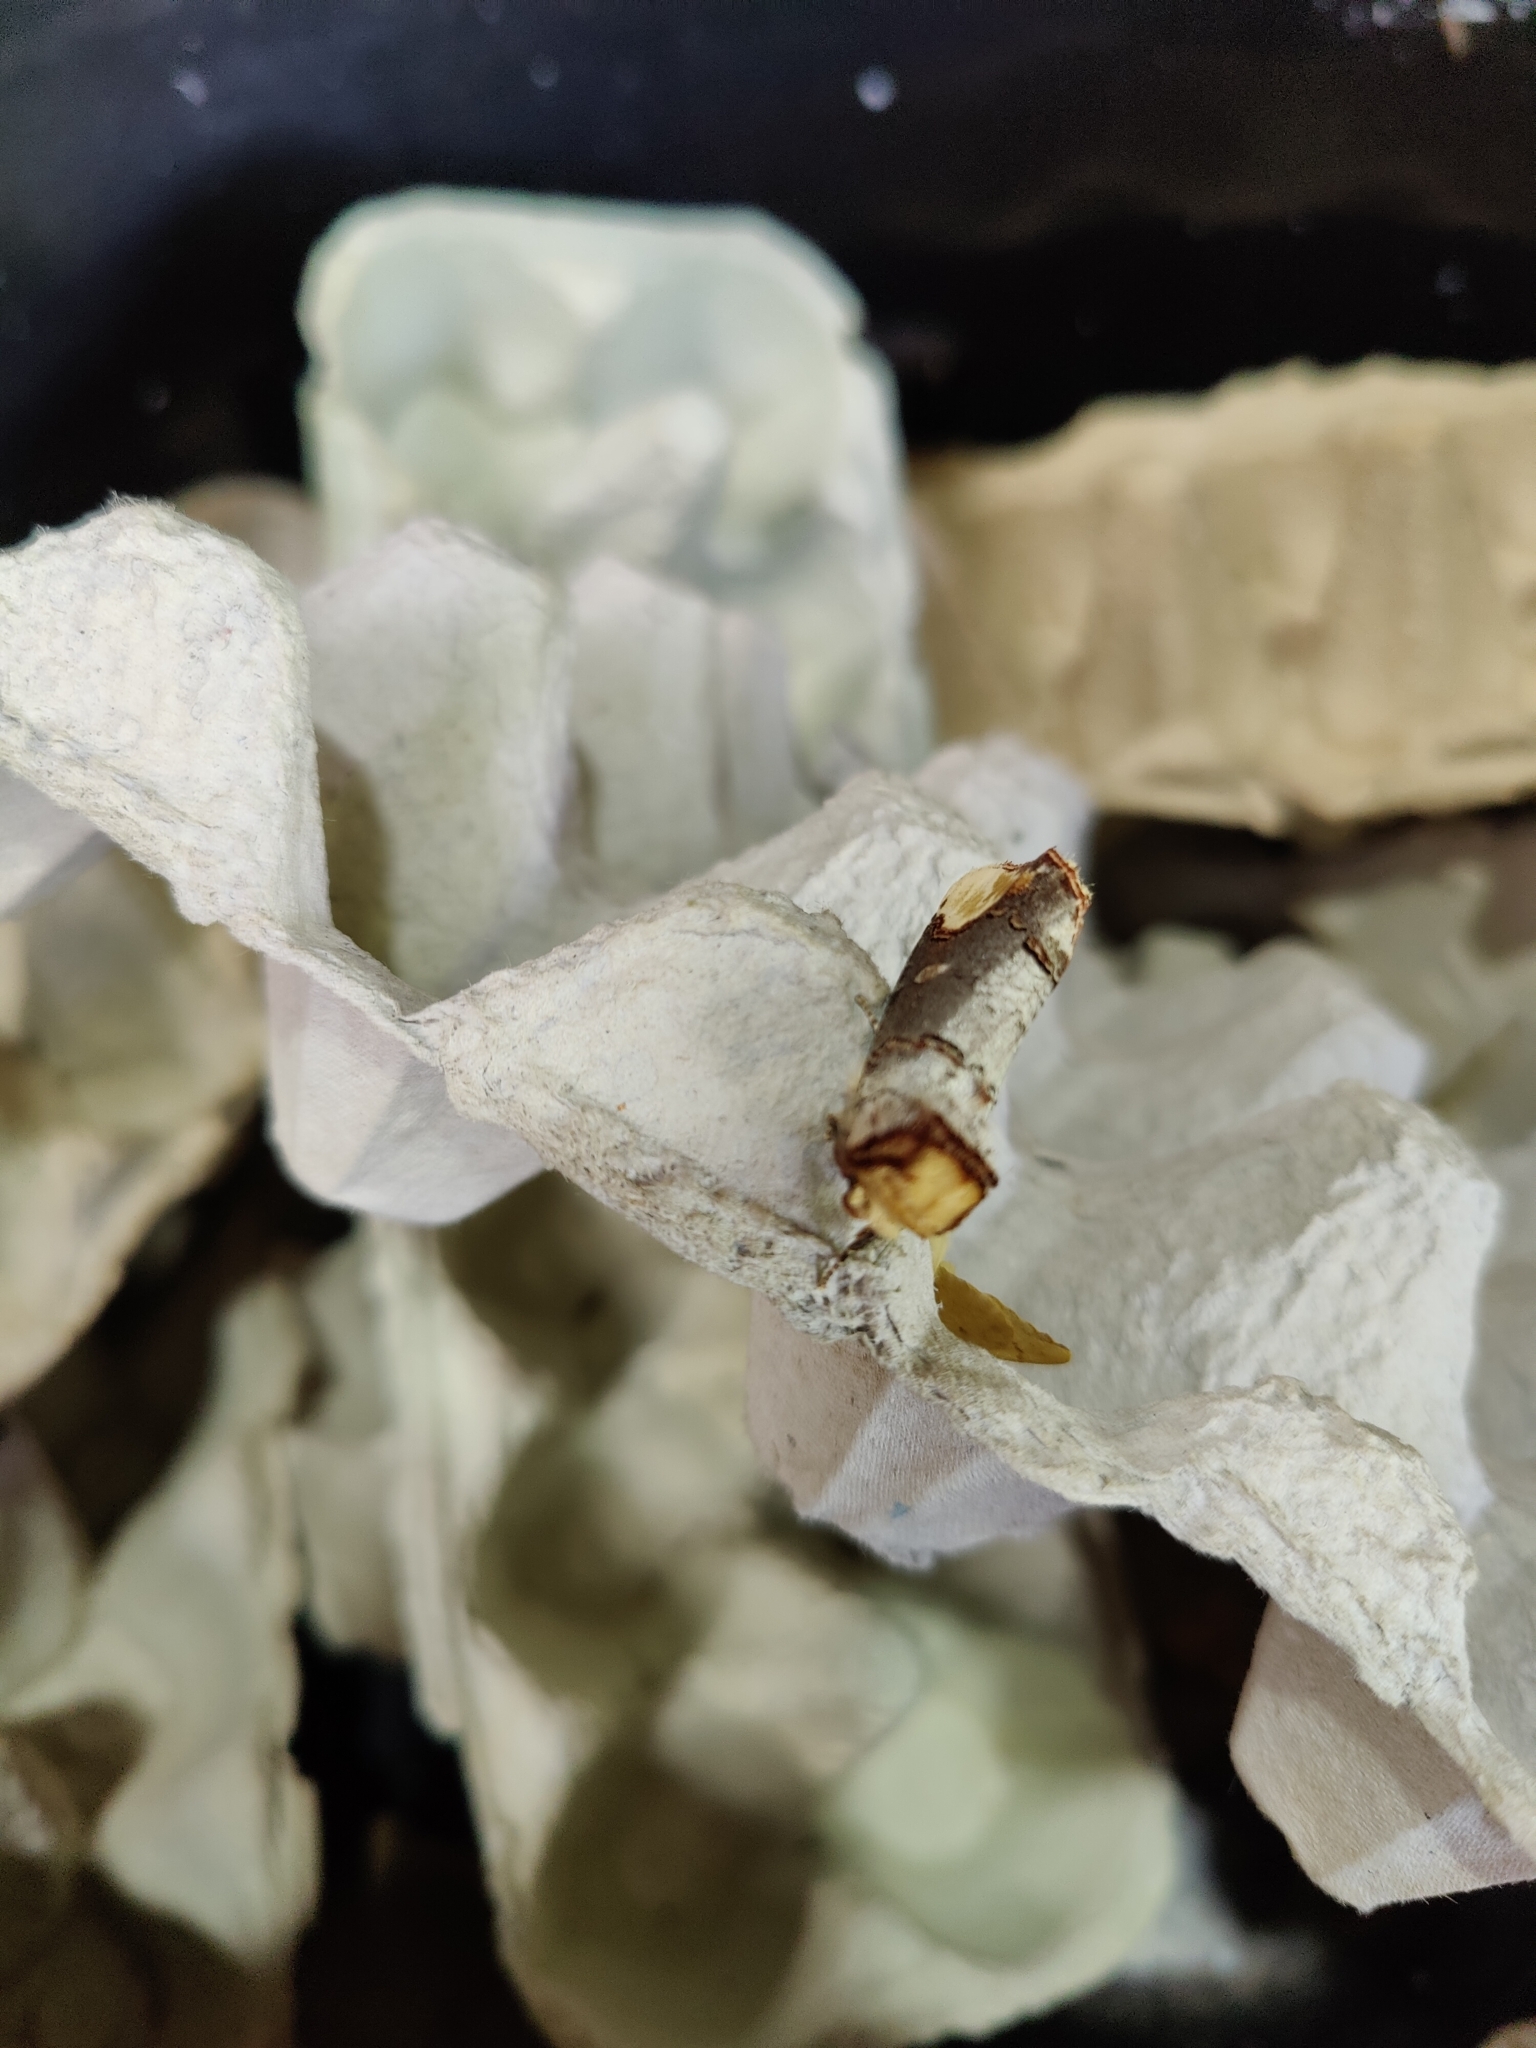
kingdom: Animalia
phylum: Arthropoda
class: Insecta
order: Lepidoptera
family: Notodontidae
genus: Phalera
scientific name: Phalera bucephala
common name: Buff-tip
